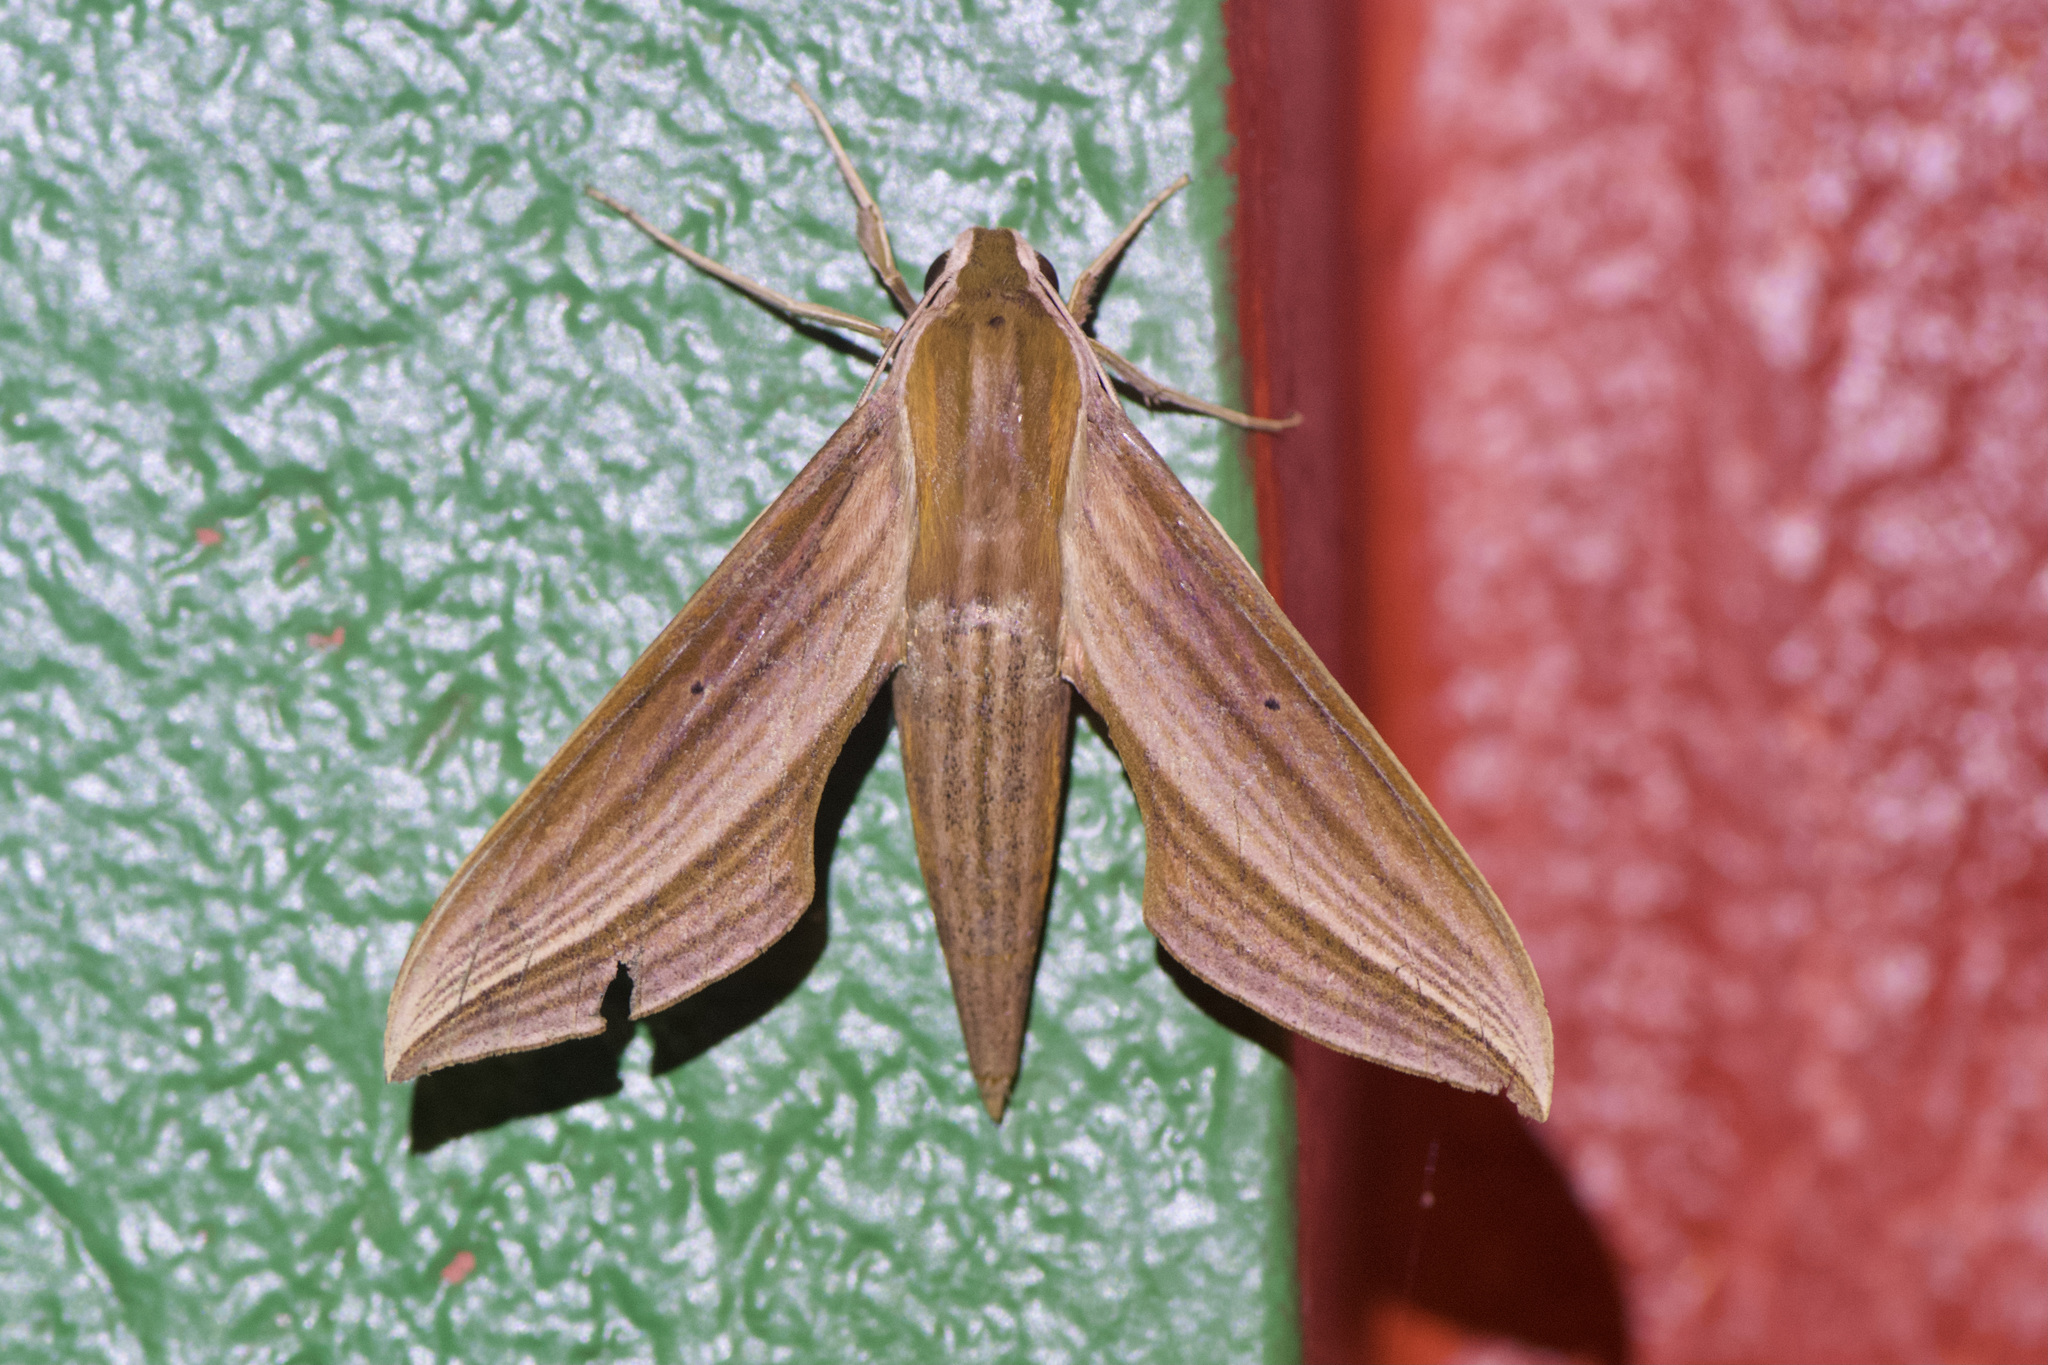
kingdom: Animalia
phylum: Arthropoda
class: Insecta
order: Lepidoptera
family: Sphingidae
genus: Xylophanes
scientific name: Xylophanes cthulhu
